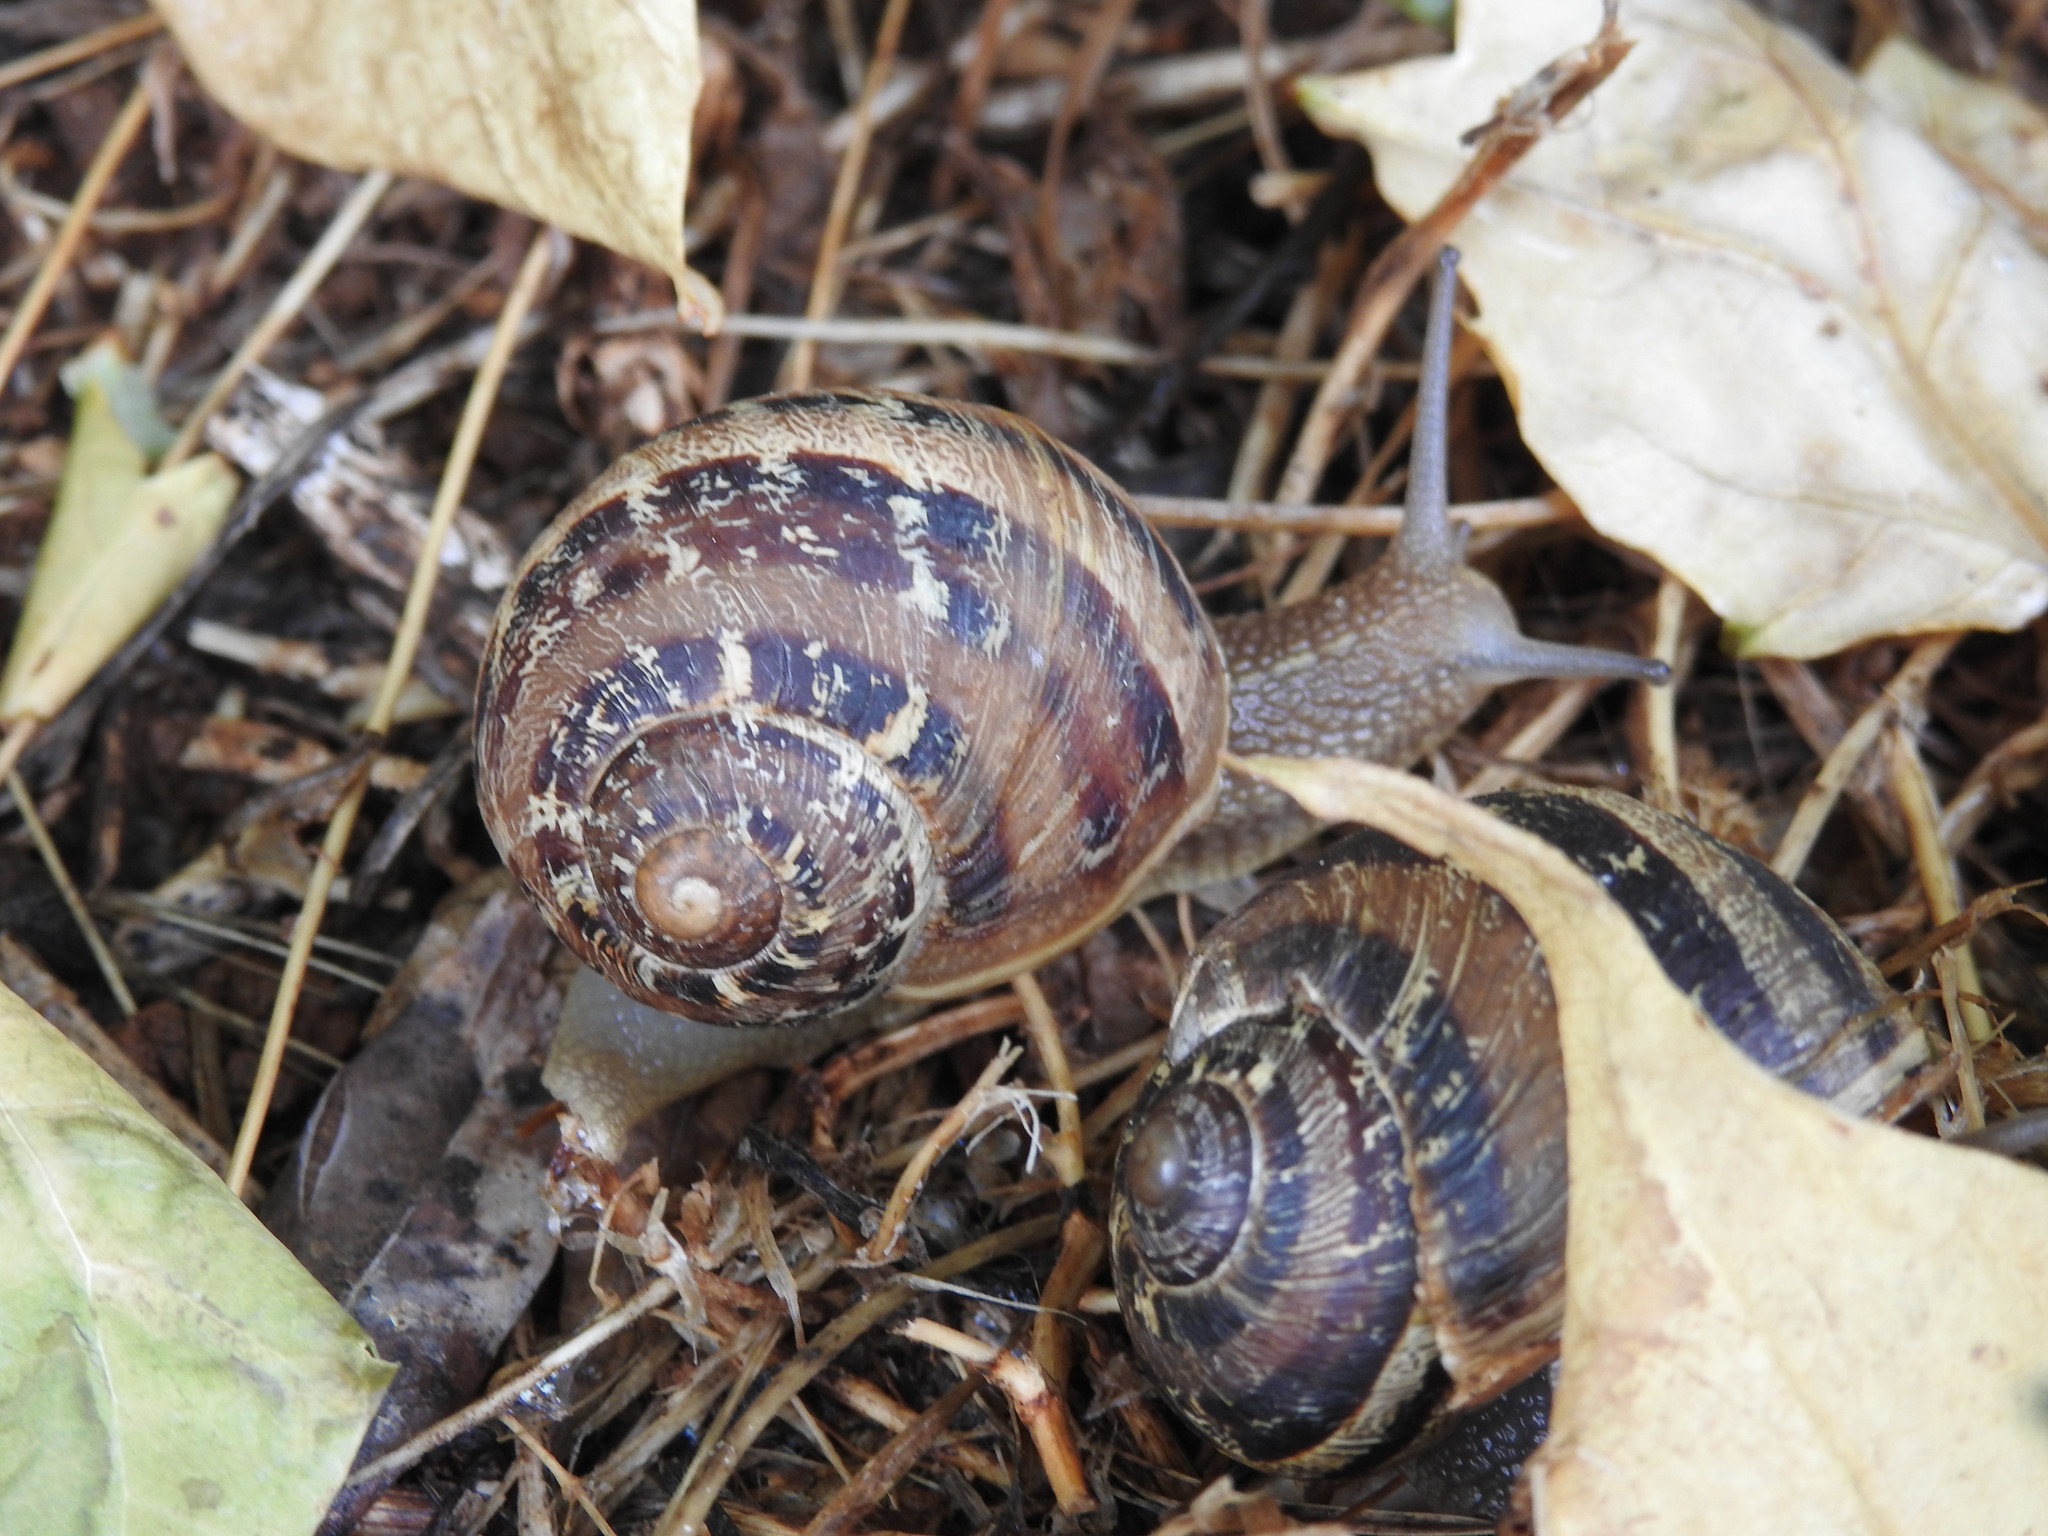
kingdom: Animalia
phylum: Mollusca
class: Gastropoda
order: Stylommatophora
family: Helicidae
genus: Cornu
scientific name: Cornu aspersum
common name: Brown garden snail
